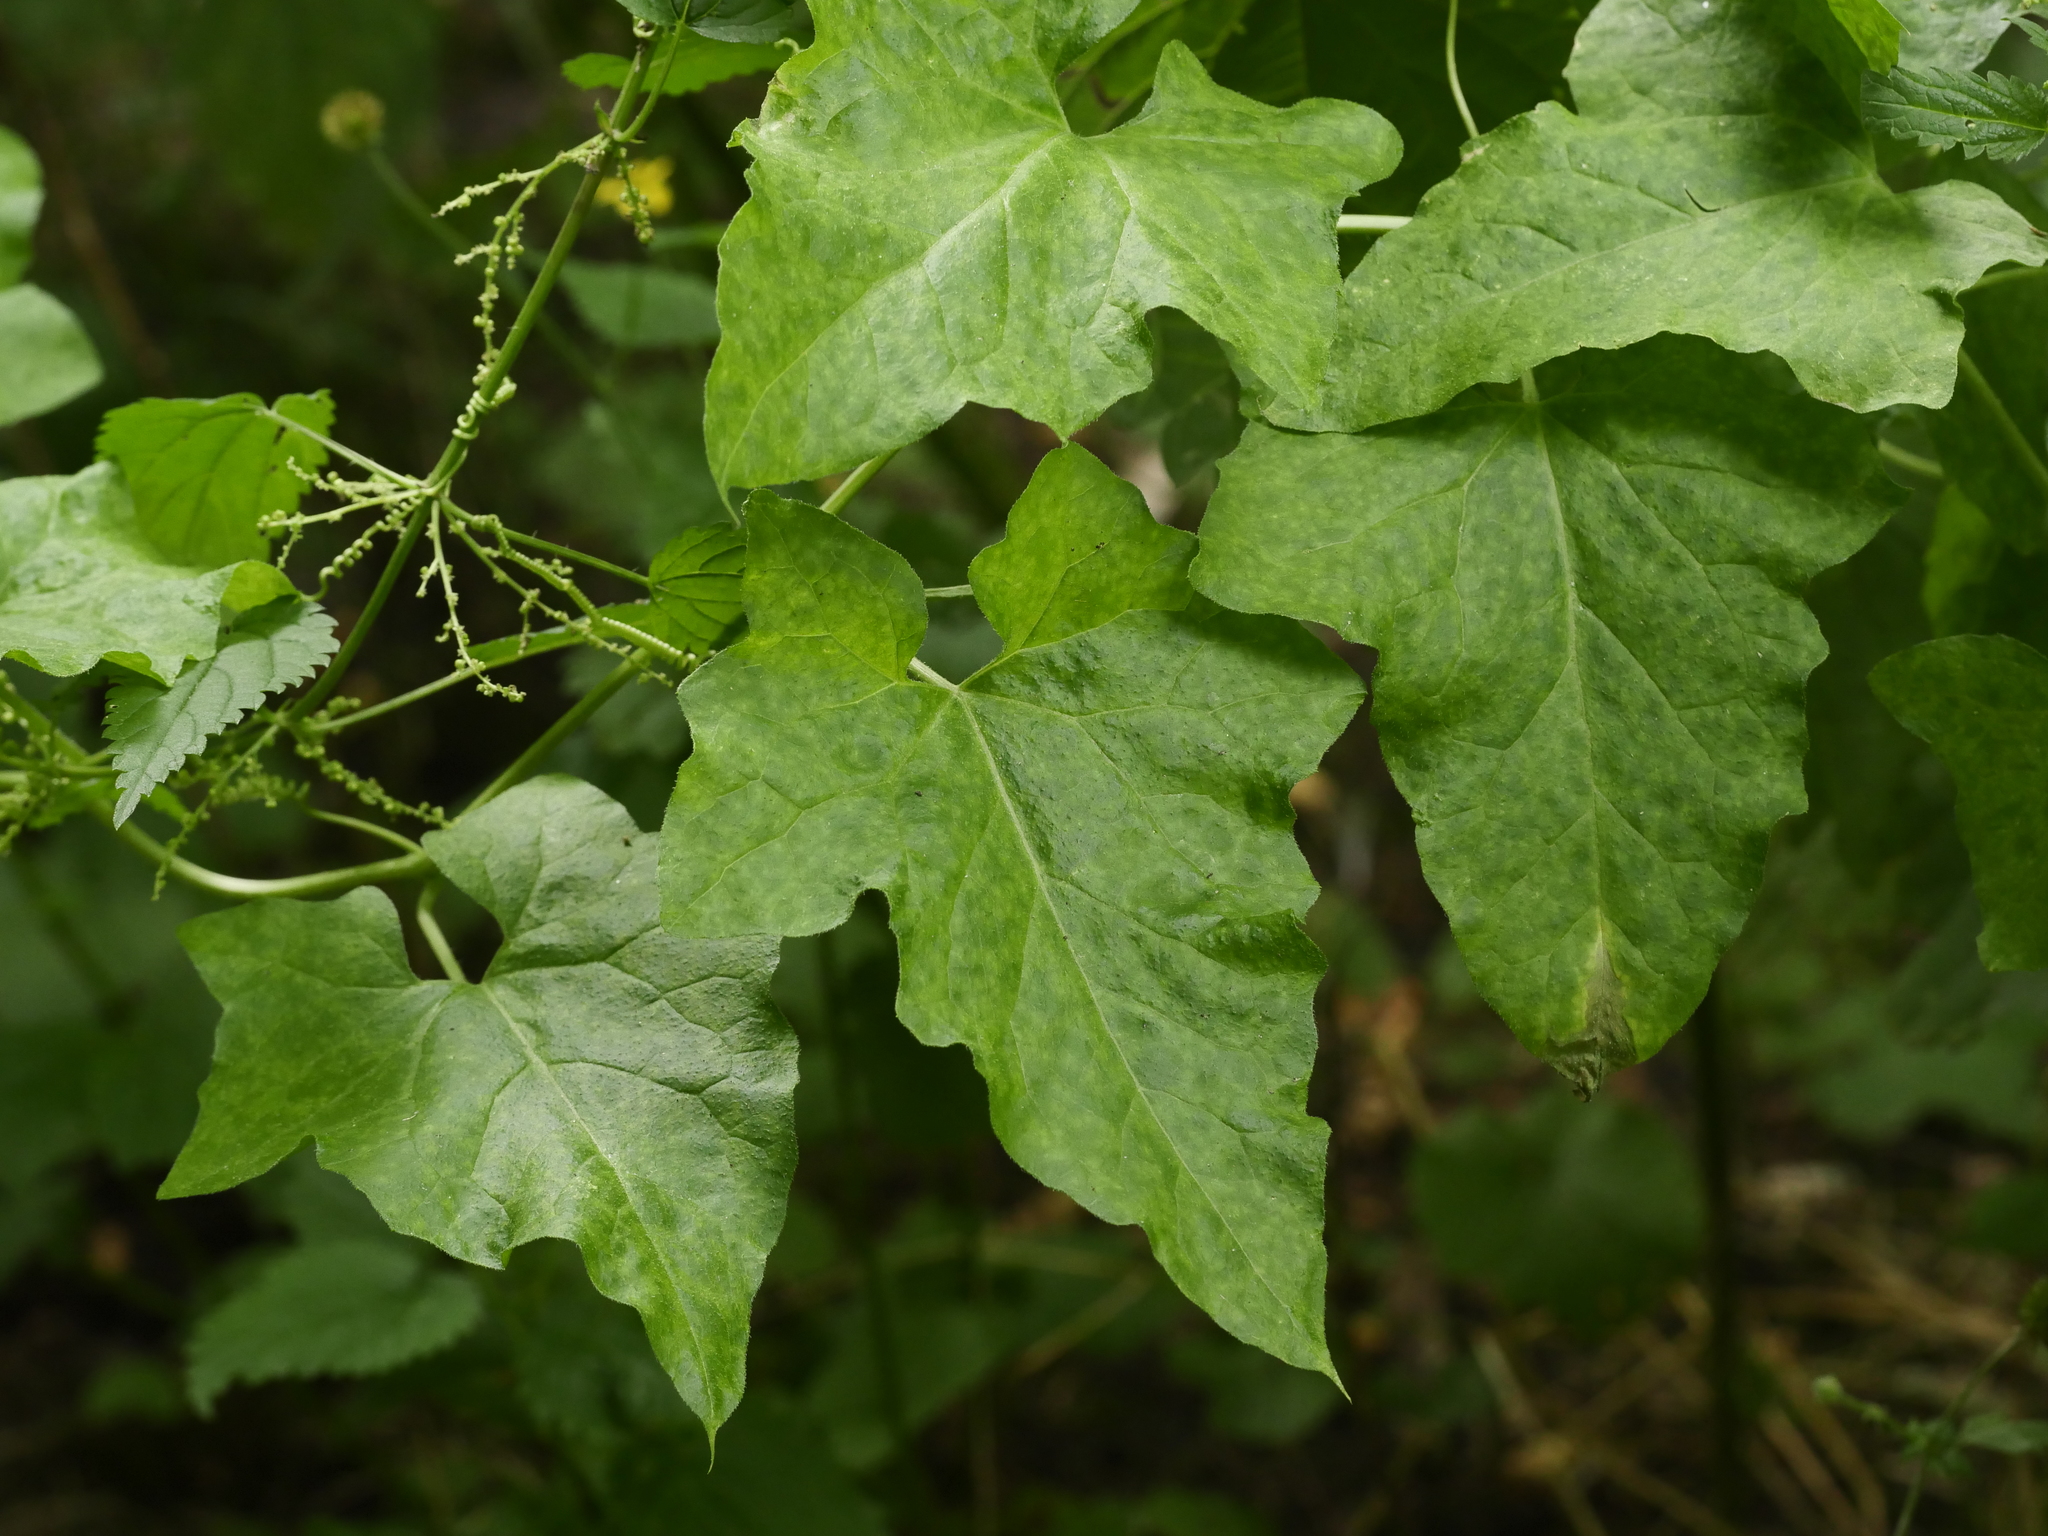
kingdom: Plantae
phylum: Tracheophyta
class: Magnoliopsida
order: Cucurbitales
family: Cucurbitaceae
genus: Bryonia
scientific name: Bryonia cretica
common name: Cretan bryony
